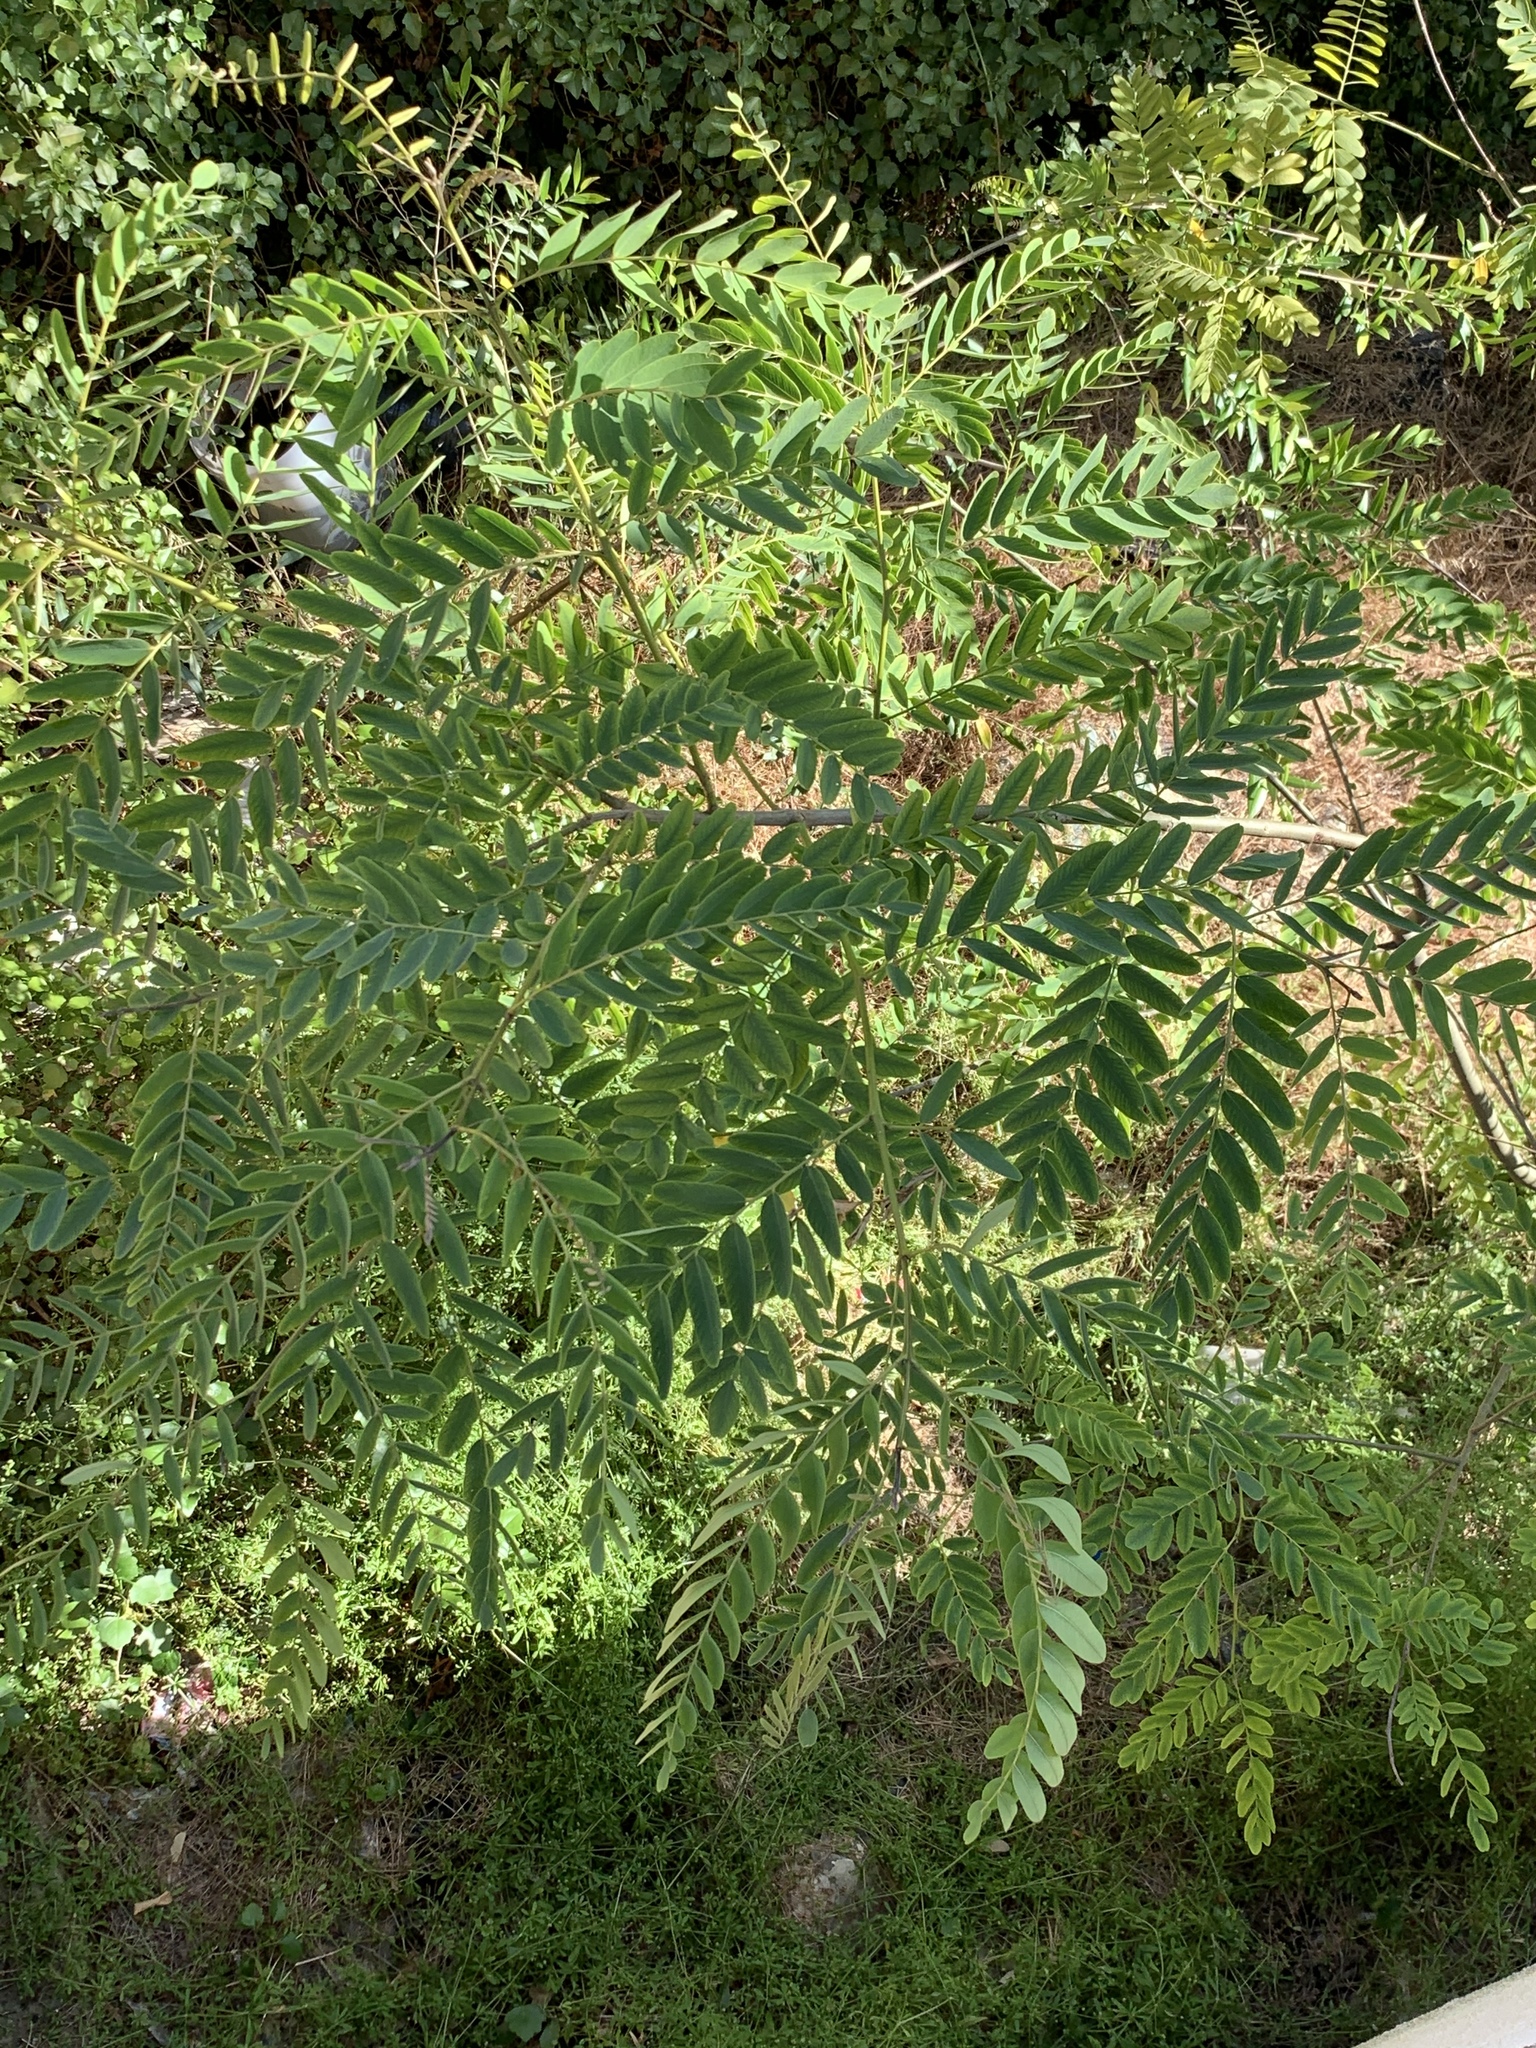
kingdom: Plantae
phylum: Tracheophyta
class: Magnoliopsida
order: Fabales
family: Fabaceae
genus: Tipuana
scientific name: Tipuana tipu
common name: Tiputree
